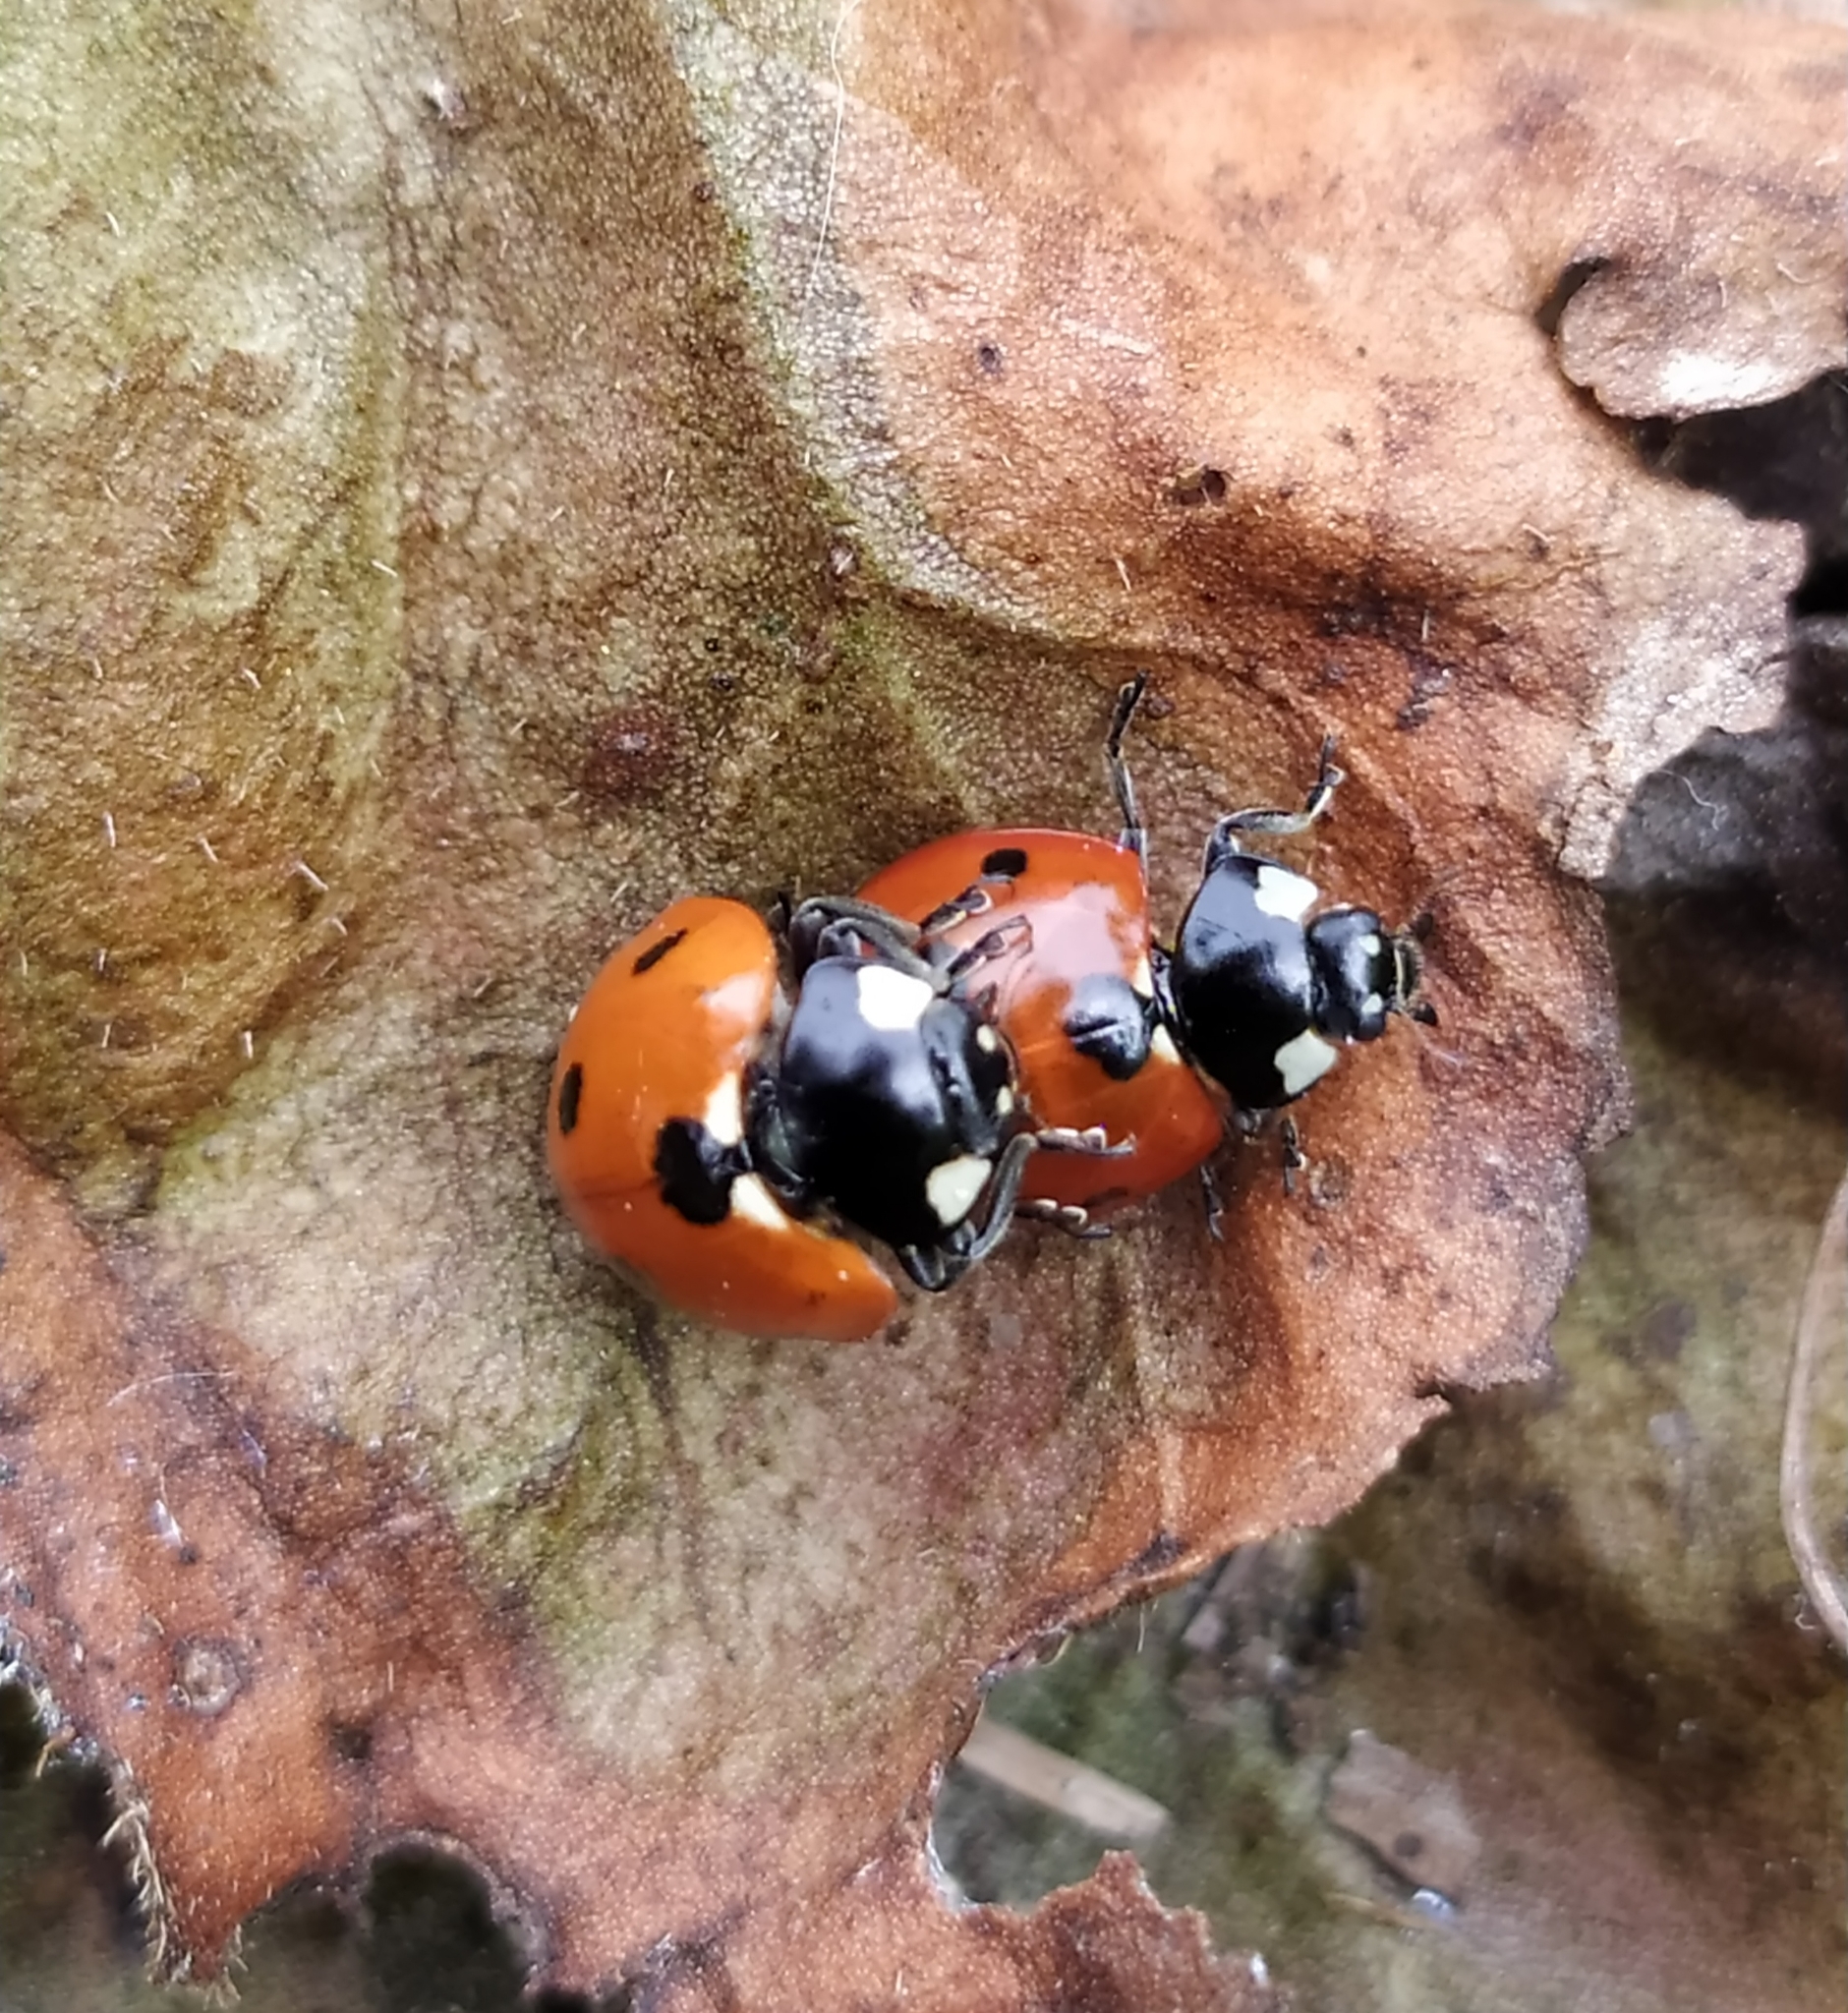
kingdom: Animalia
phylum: Arthropoda
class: Insecta
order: Coleoptera
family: Coccinellidae
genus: Coccinella
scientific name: Coccinella septempunctata
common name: Sevenspotted lady beetle
